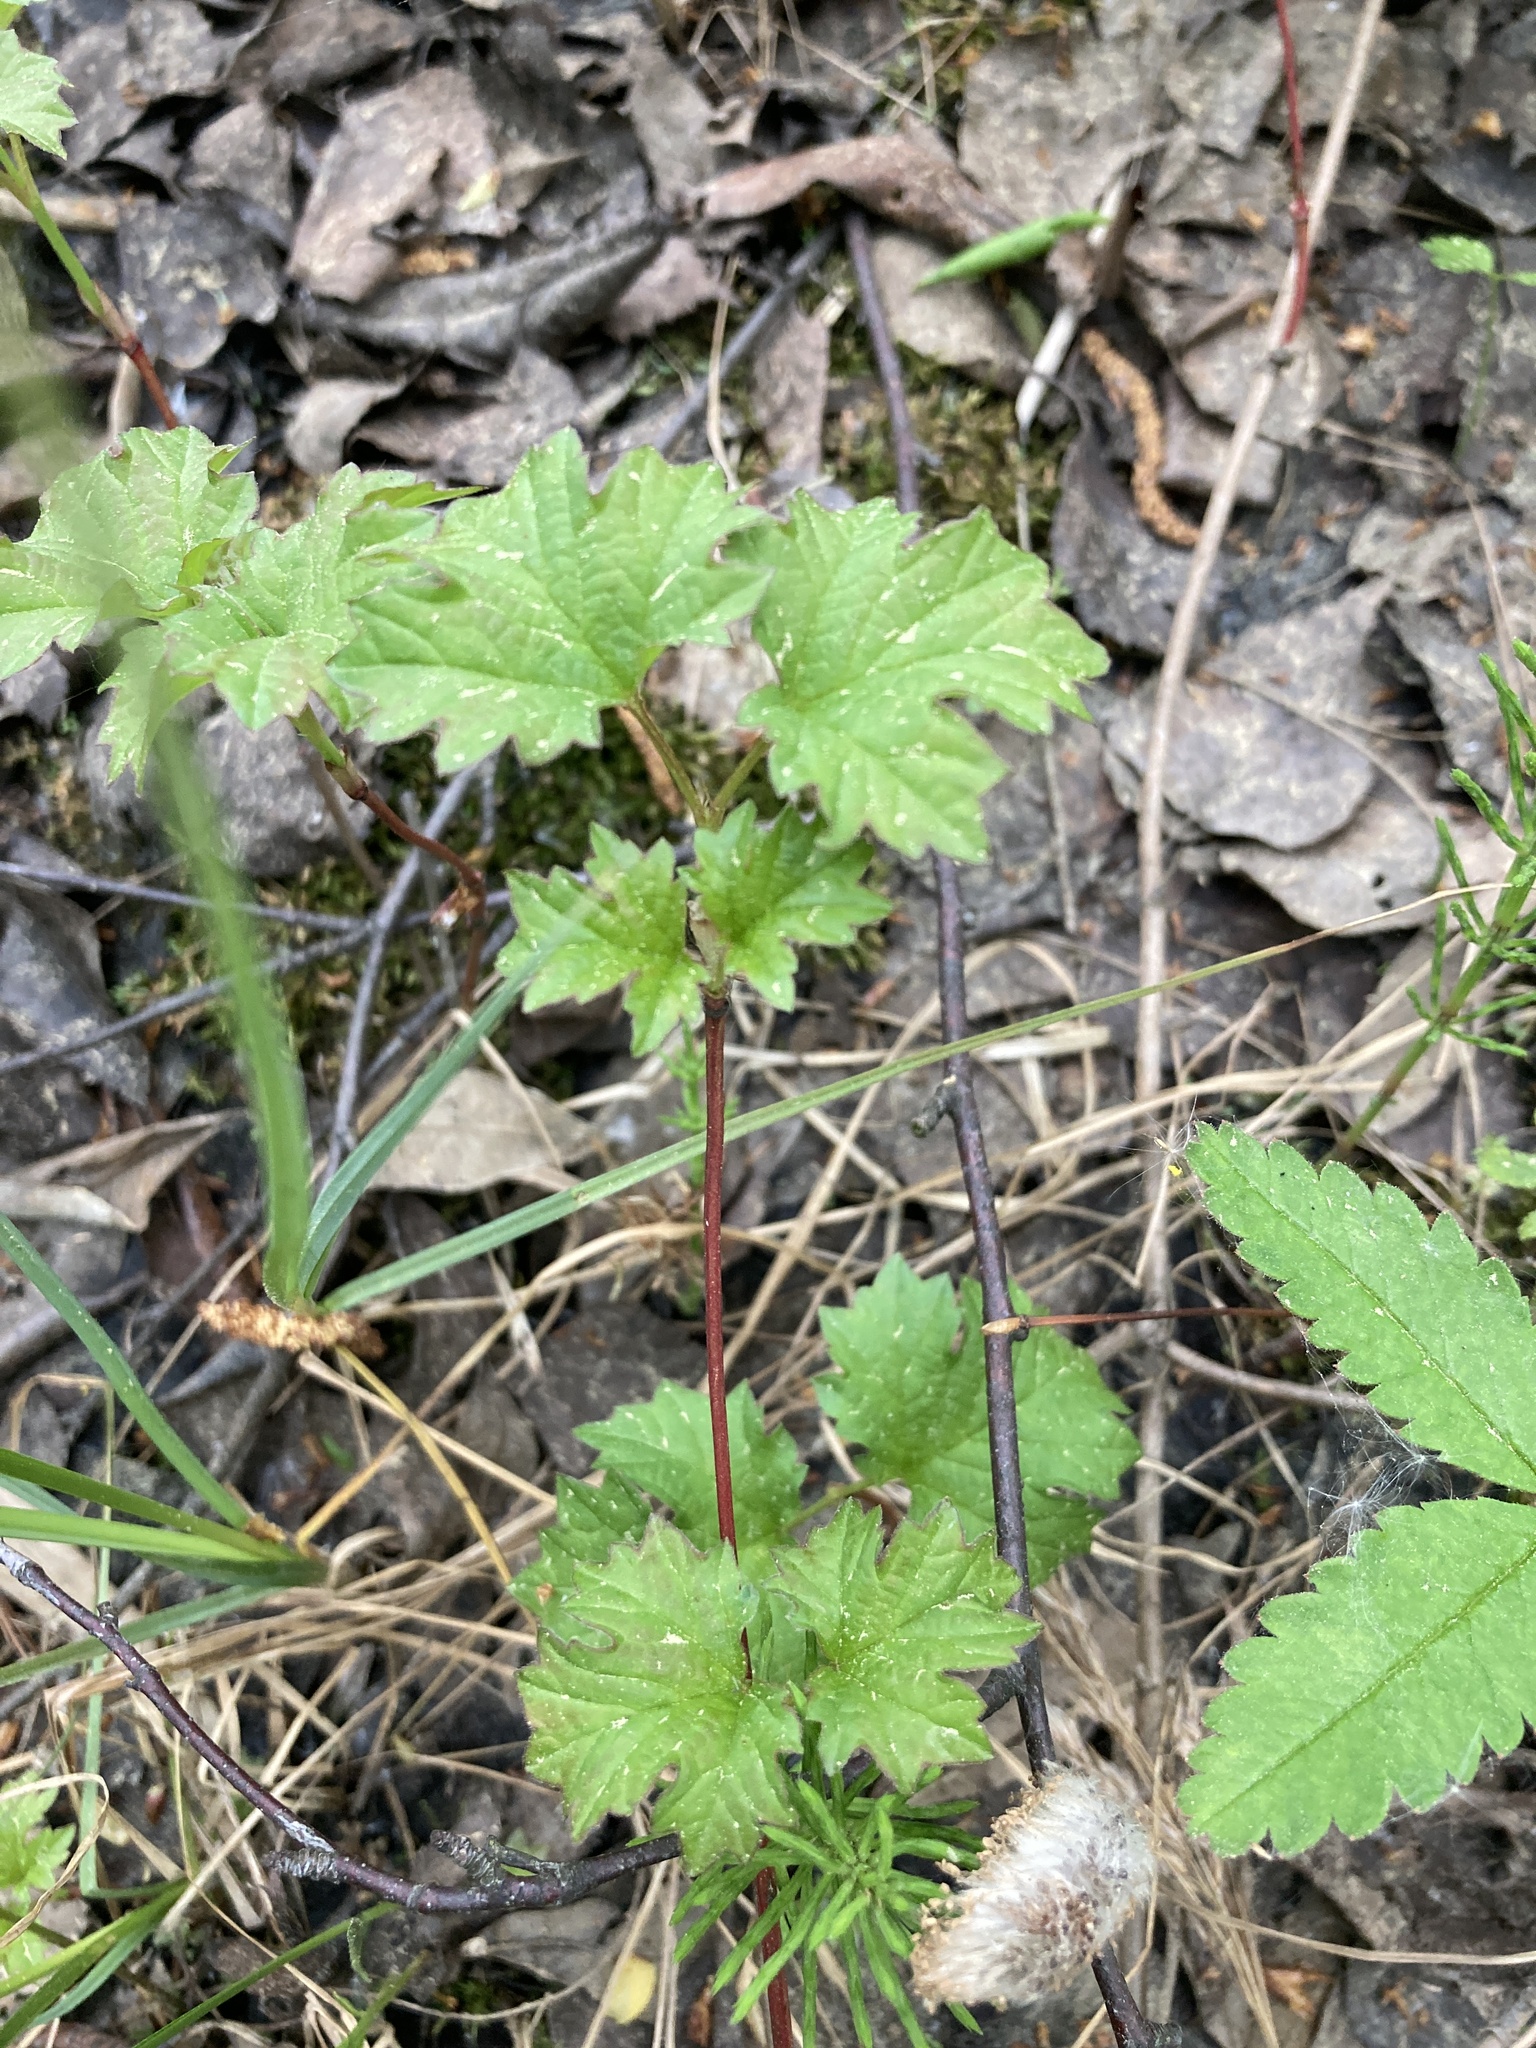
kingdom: Plantae
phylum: Tracheophyta
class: Magnoliopsida
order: Dipsacales
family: Viburnaceae
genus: Viburnum
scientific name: Viburnum opulus
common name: Guelder-rose
